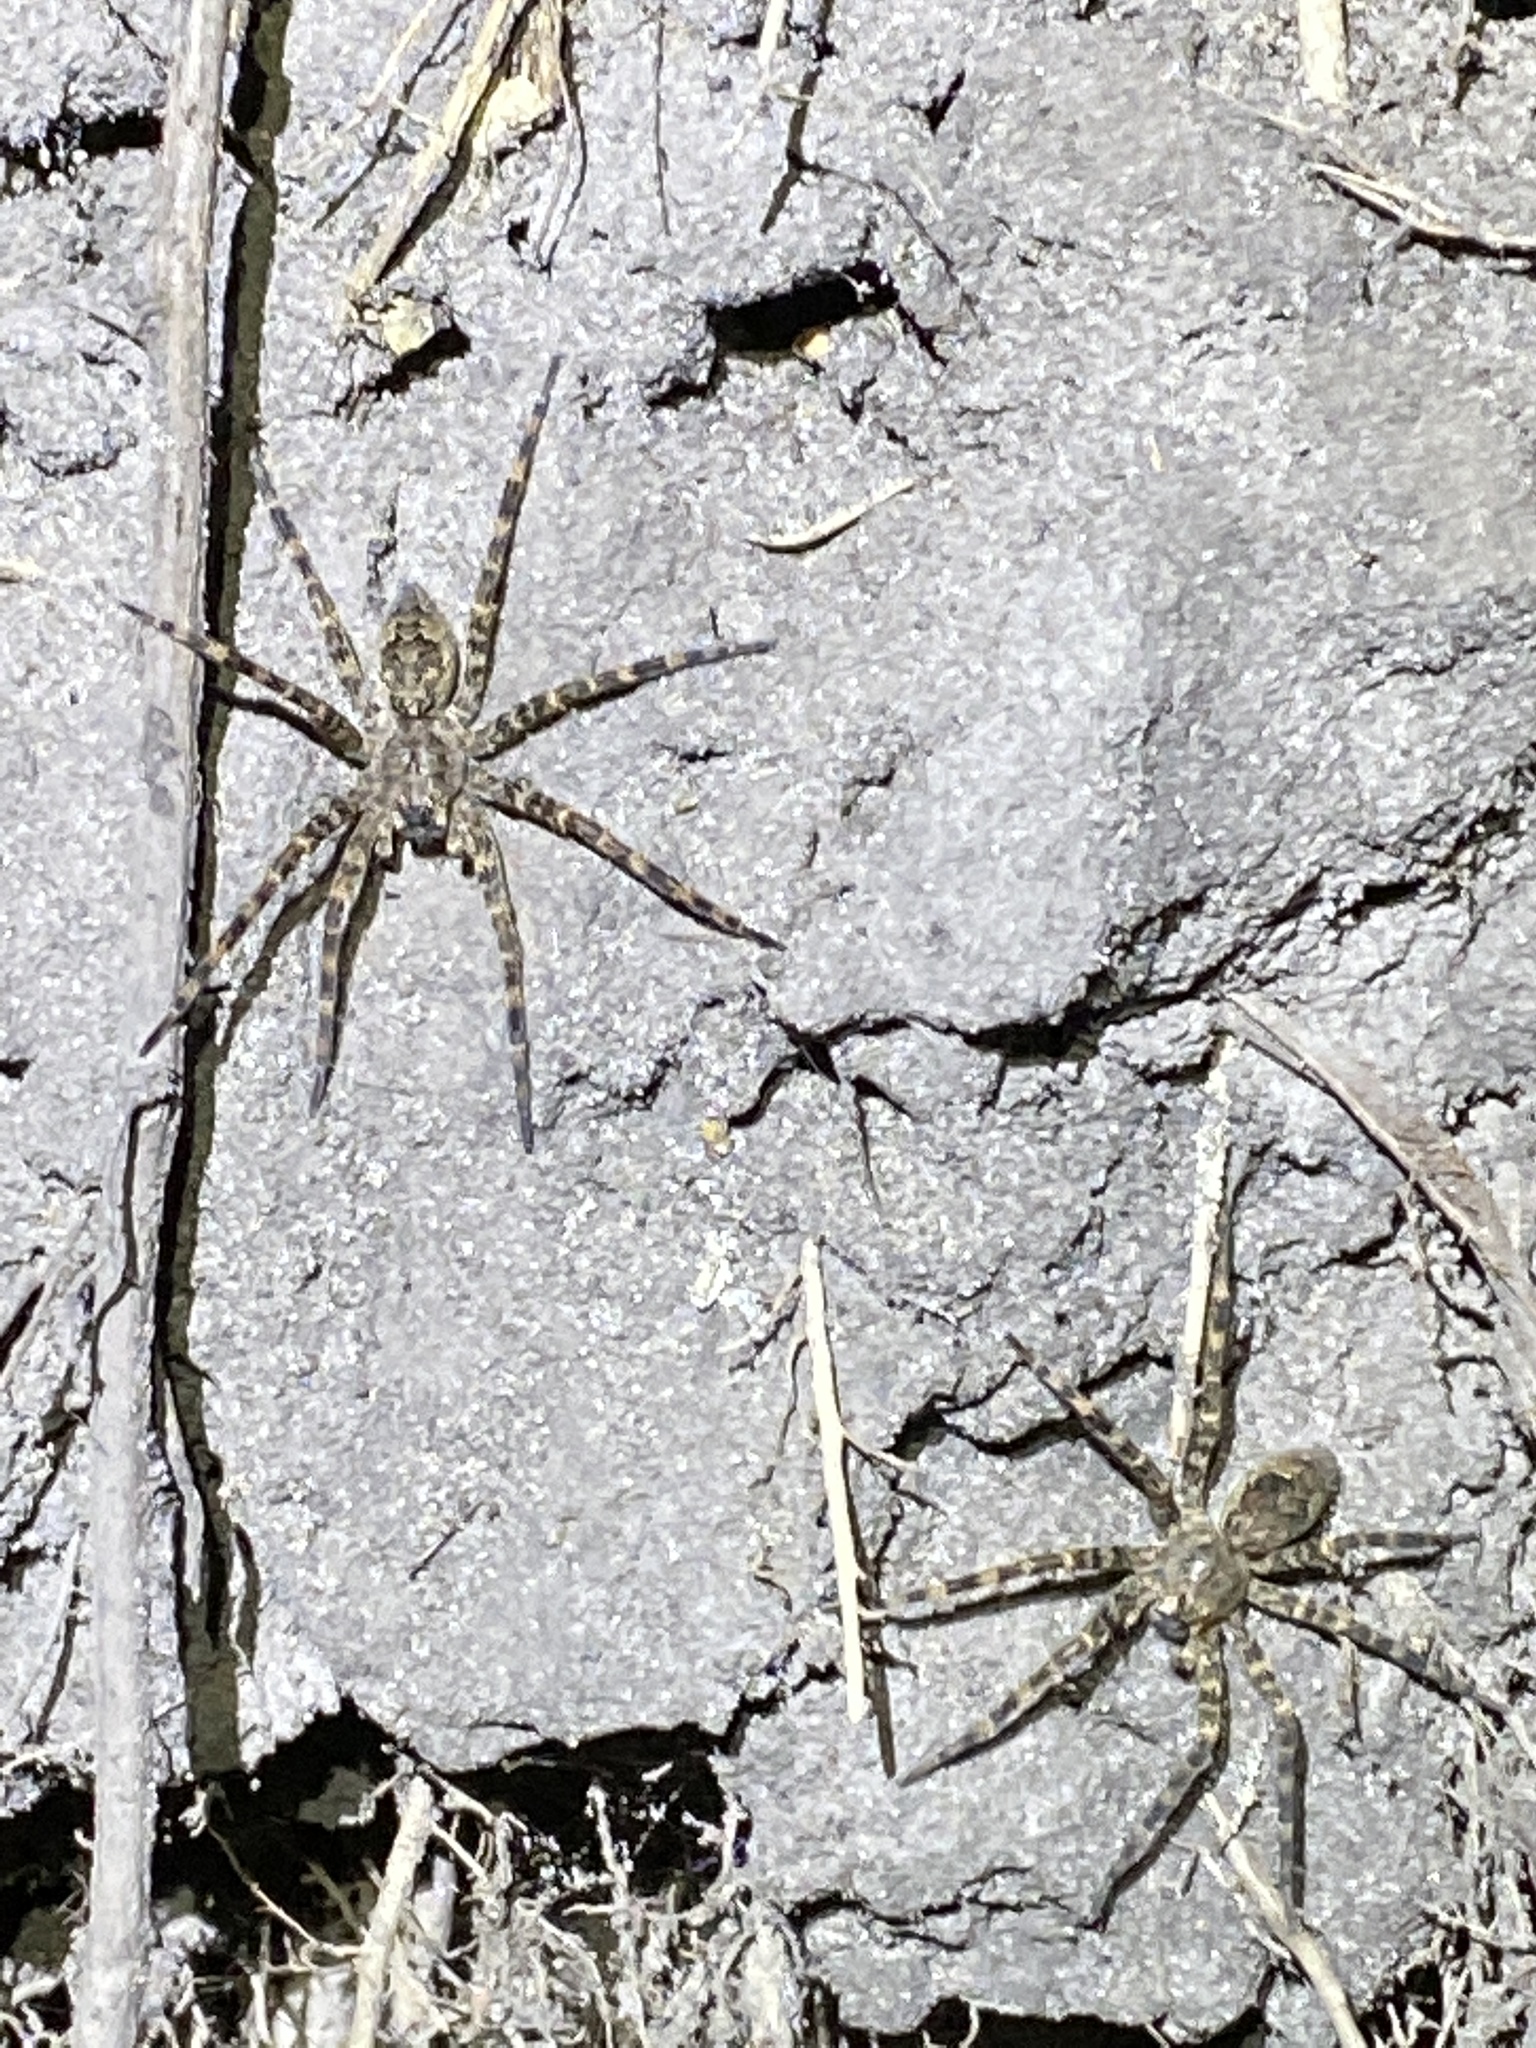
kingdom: Animalia
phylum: Arthropoda
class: Arachnida
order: Araneae
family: Pisauridae
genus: Dolomedes
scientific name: Dolomedes tenebrosus
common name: Dark fishing spider
